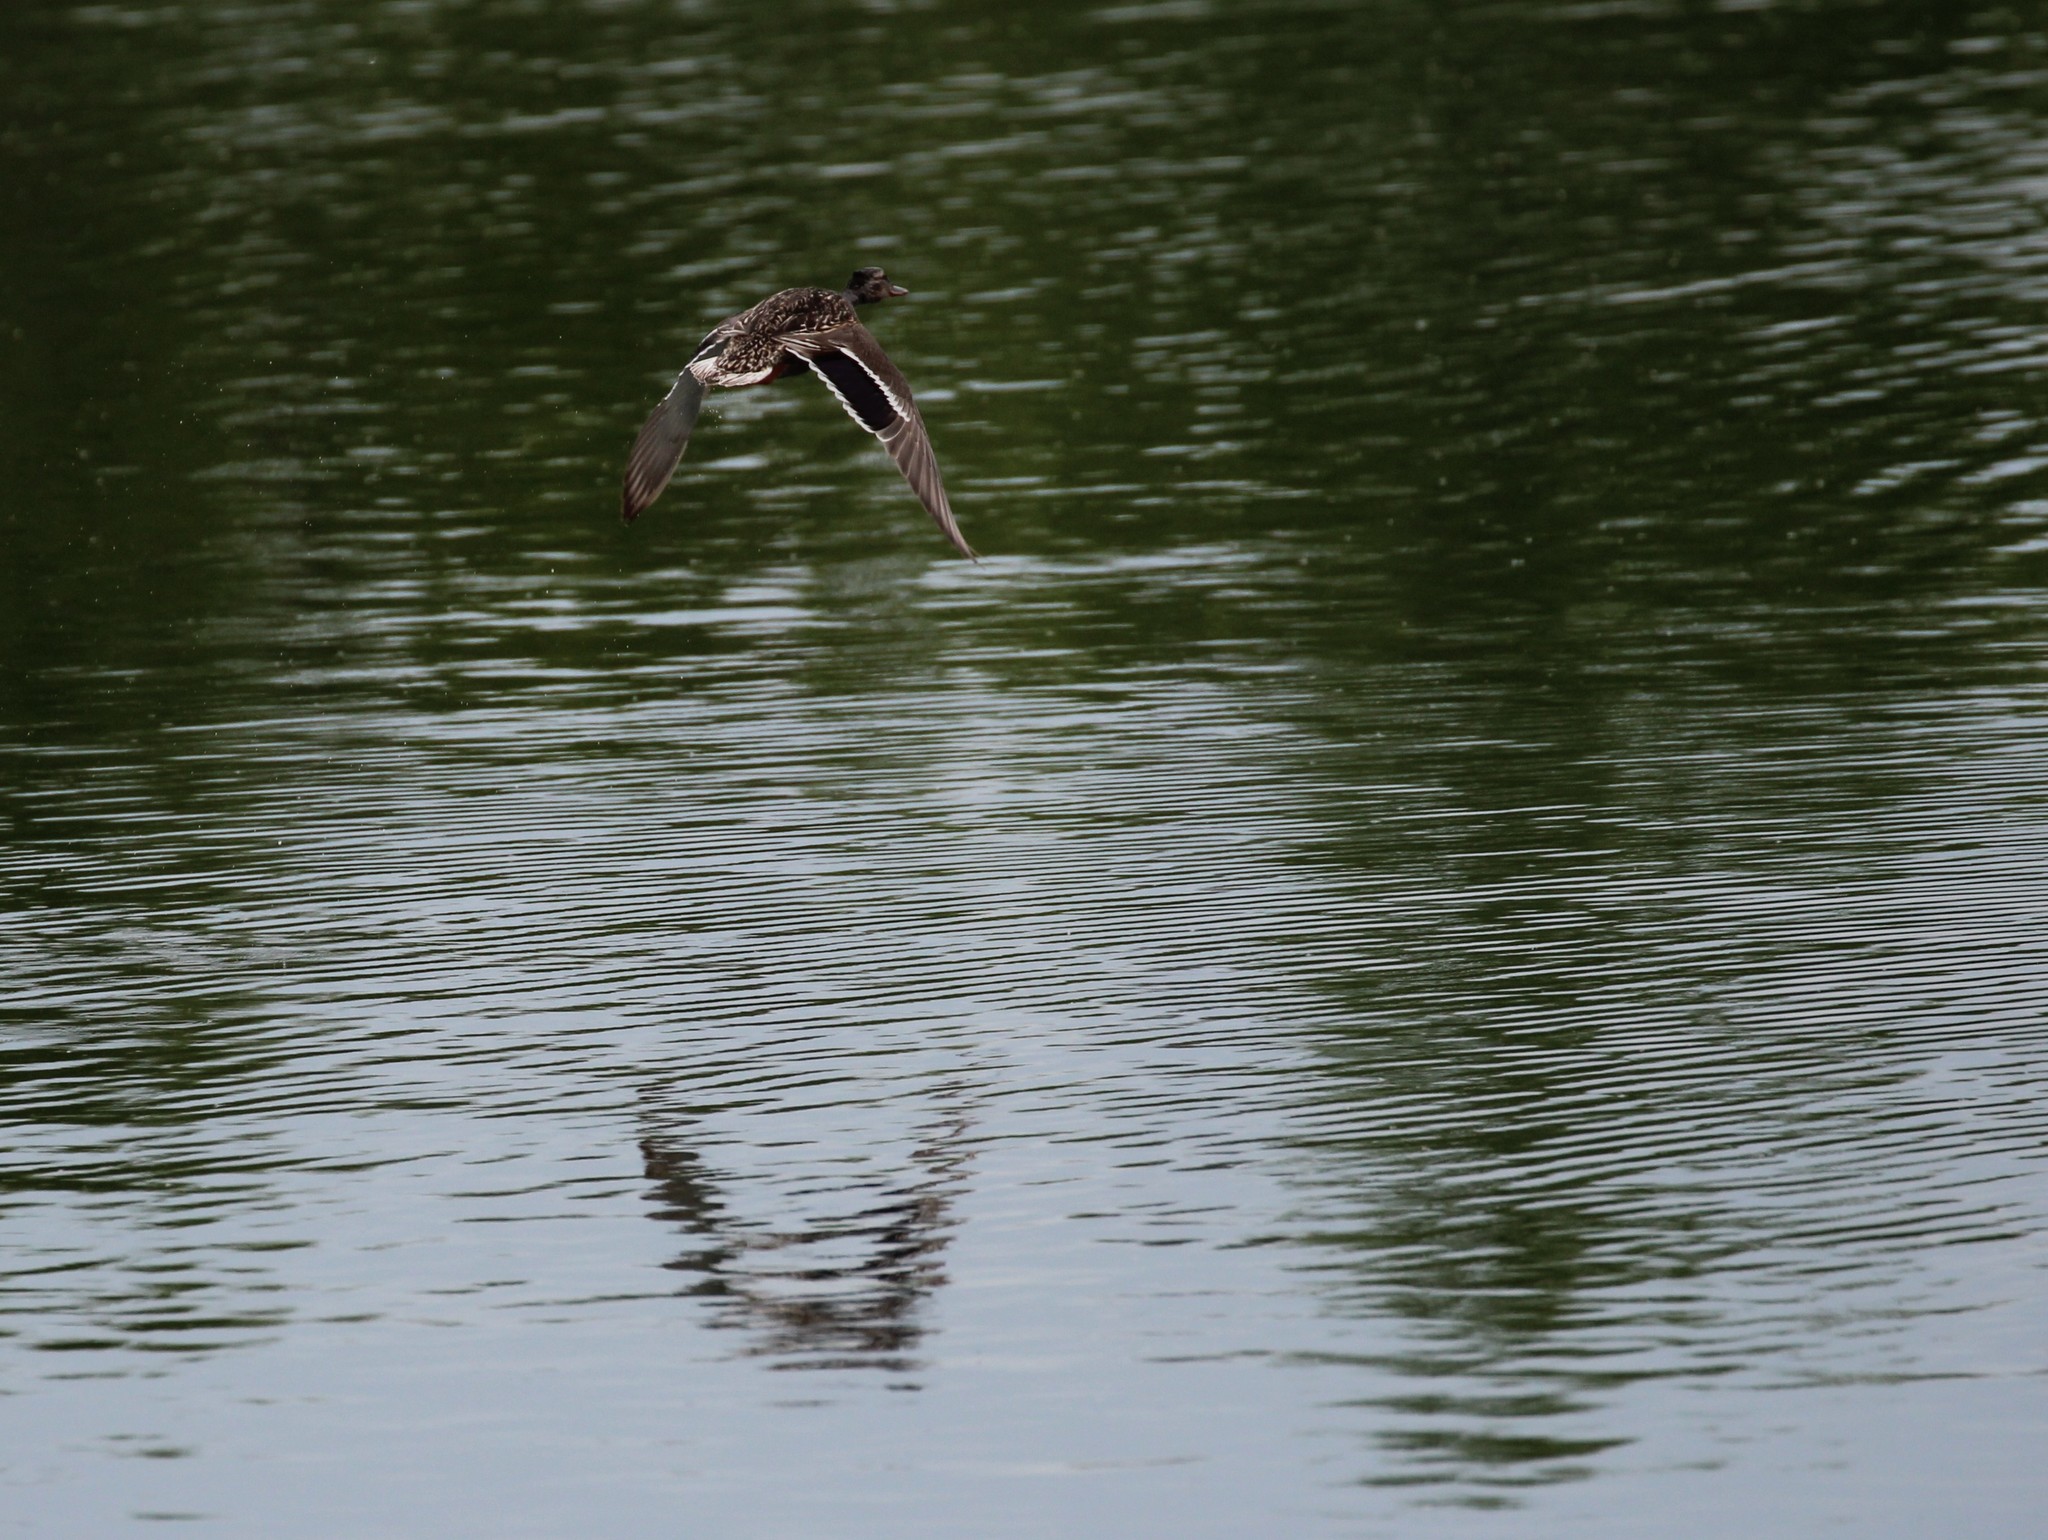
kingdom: Animalia
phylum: Chordata
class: Aves
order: Anseriformes
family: Anatidae
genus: Anas
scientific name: Anas platyrhynchos
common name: Mallard
